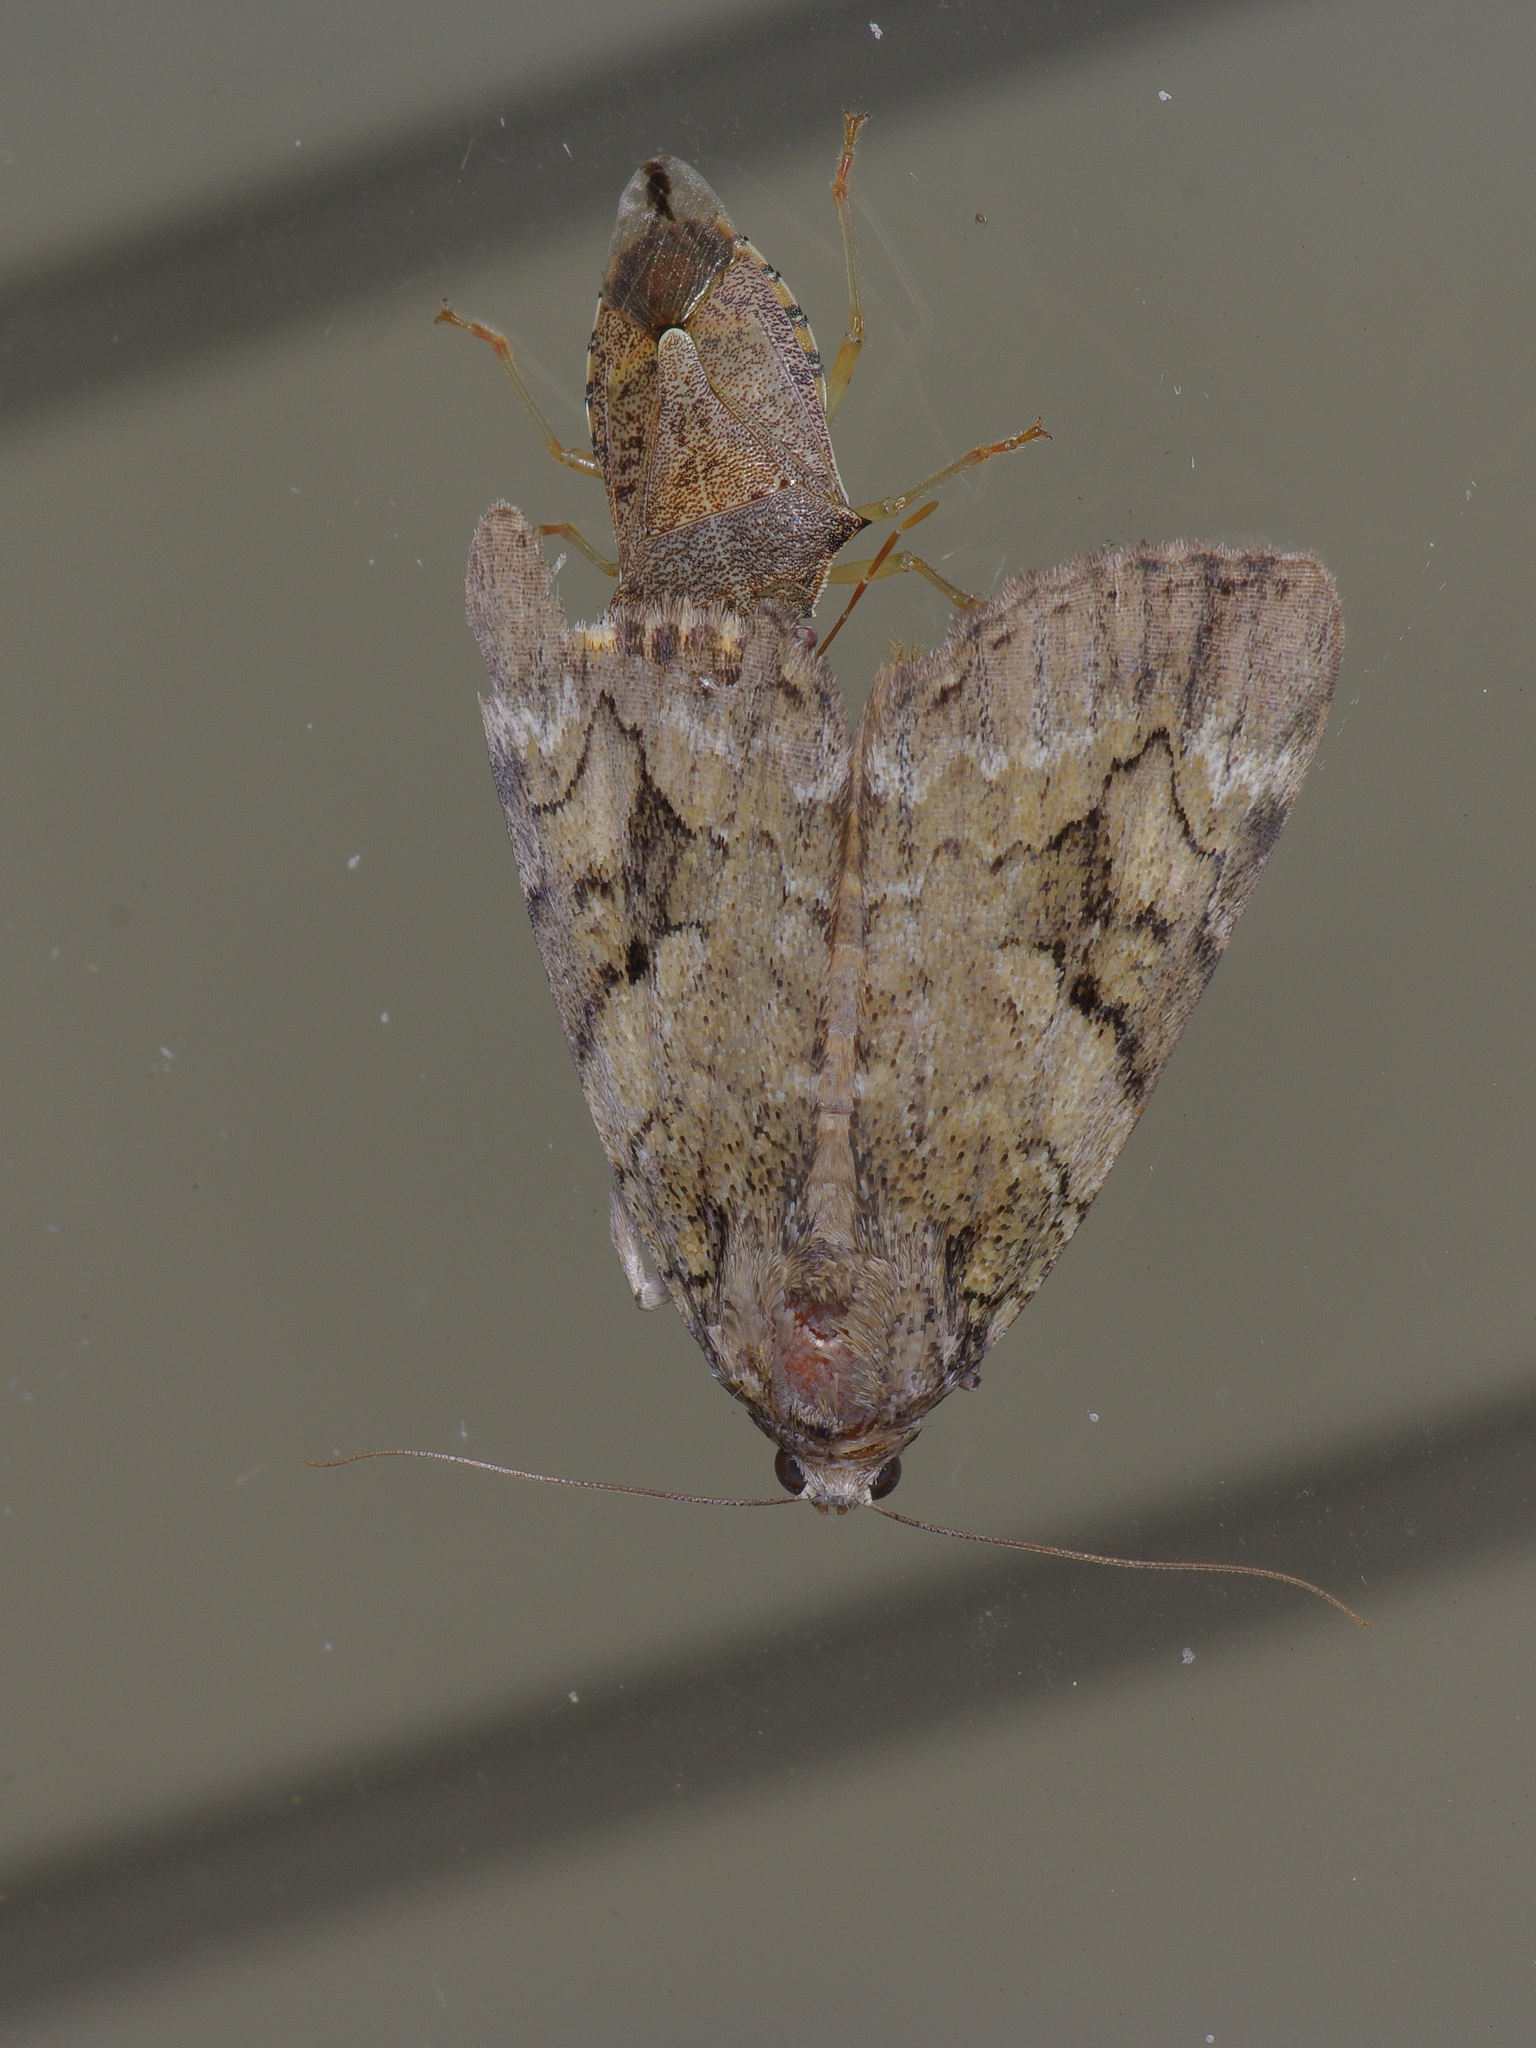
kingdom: Animalia
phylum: Arthropoda
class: Insecta
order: Hemiptera
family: Pentatomidae
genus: Podisus
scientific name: Podisus maculiventris
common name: Spined soldier bug
